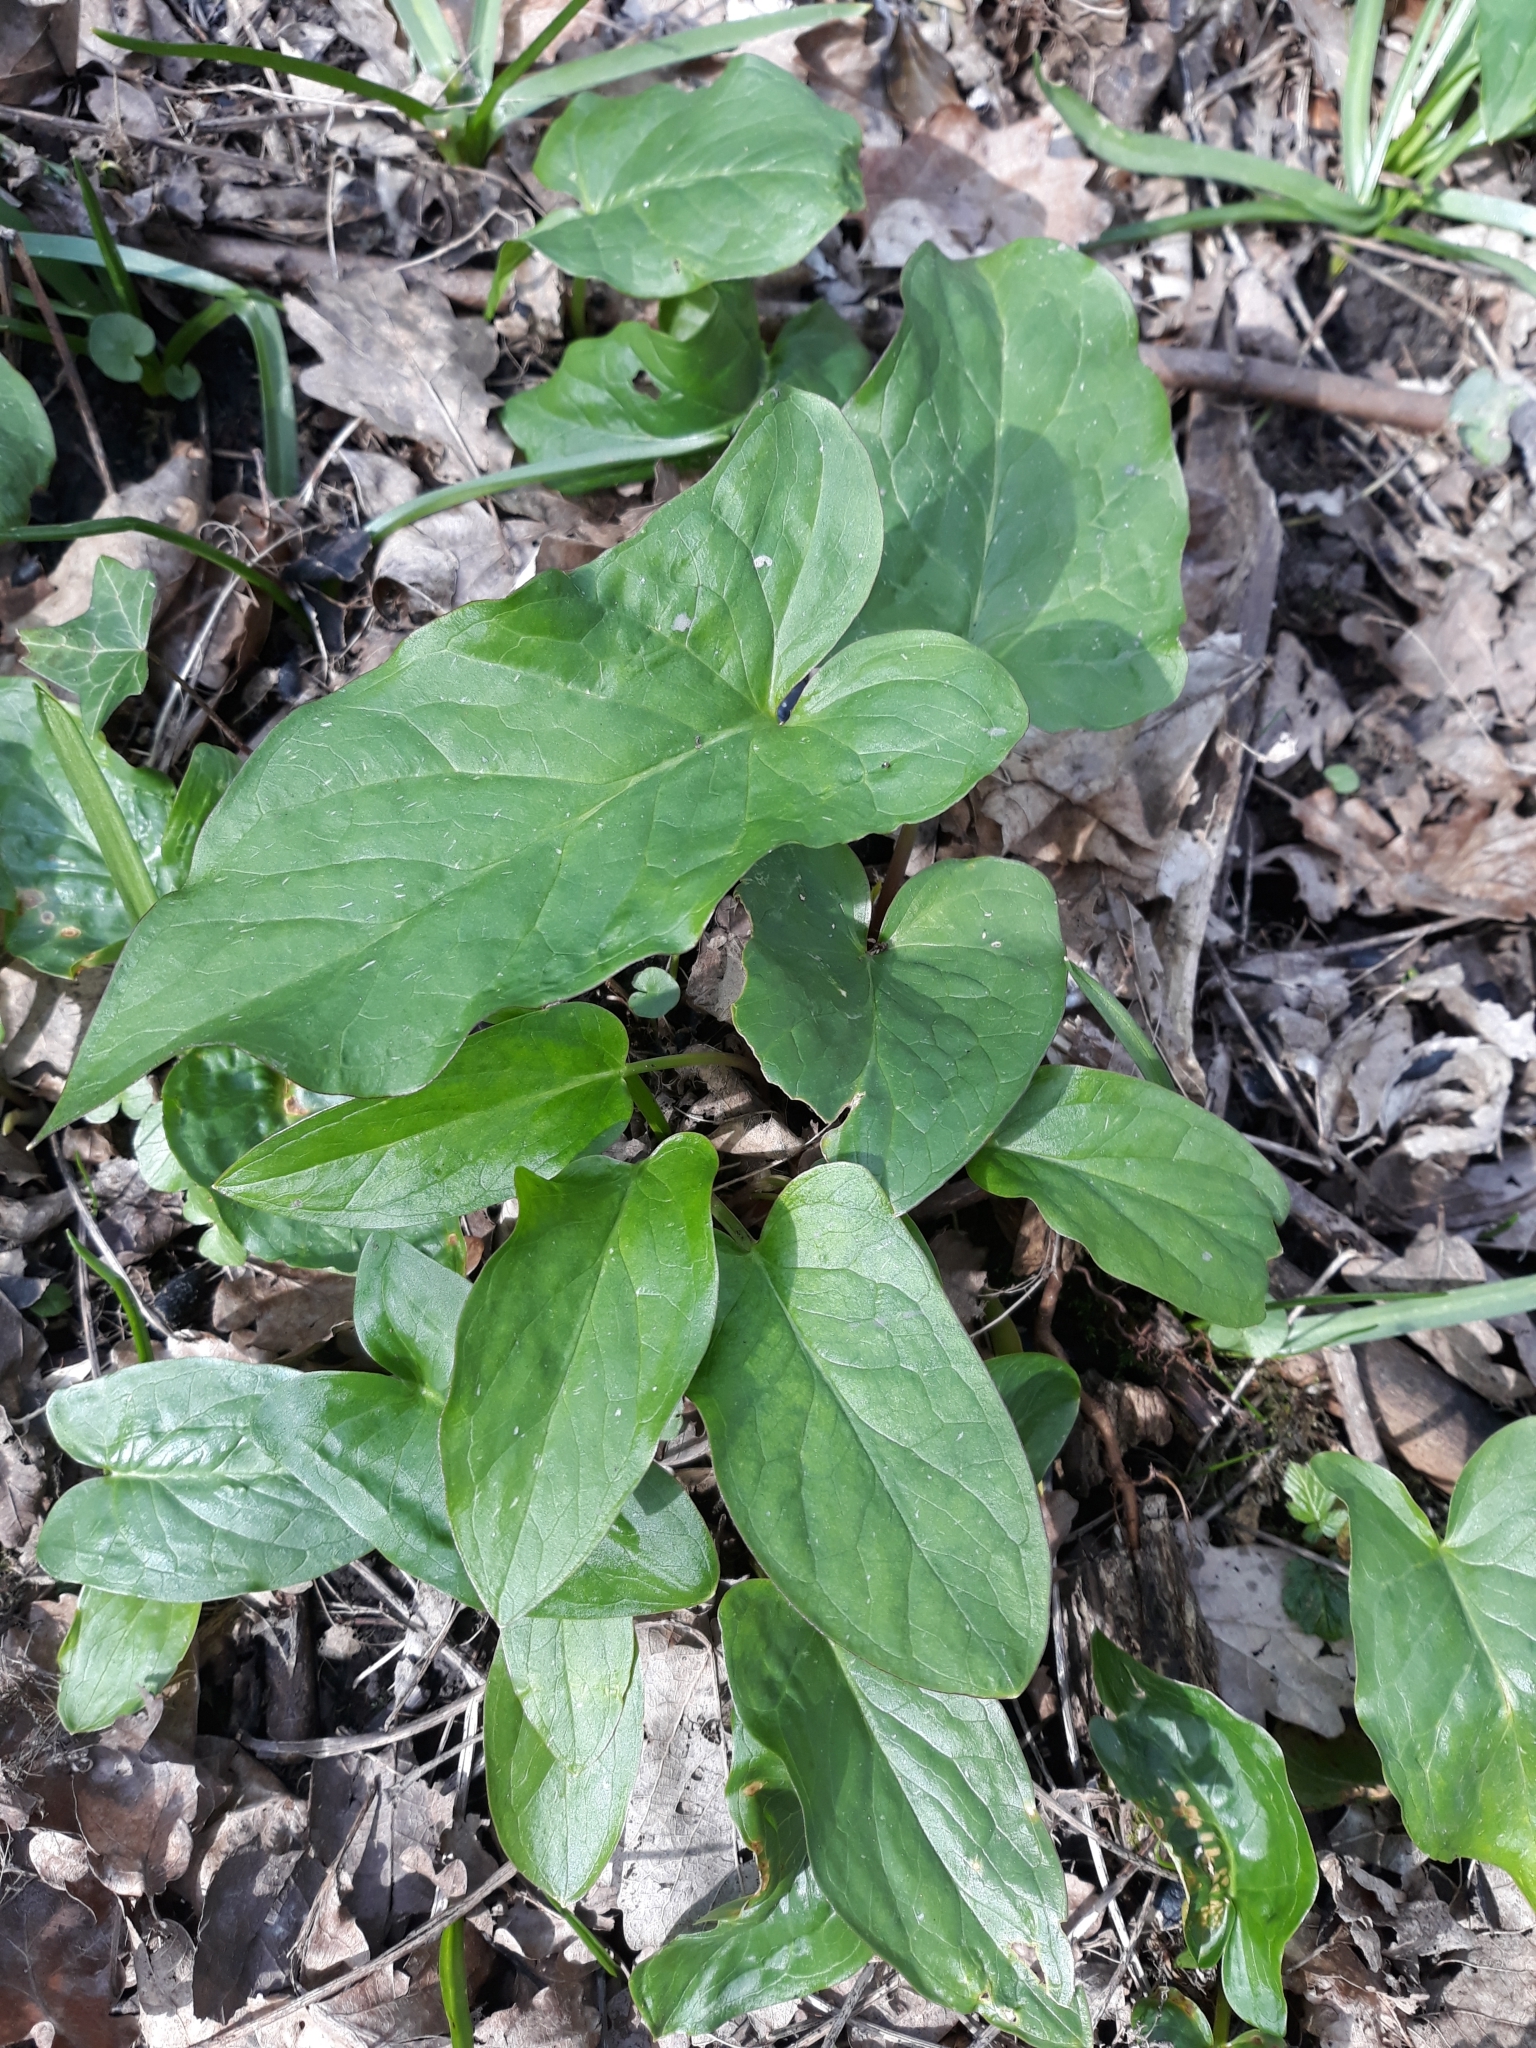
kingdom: Plantae
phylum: Tracheophyta
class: Liliopsida
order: Alismatales
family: Araceae
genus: Arum
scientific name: Arum maculatum
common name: Lords-and-ladies
